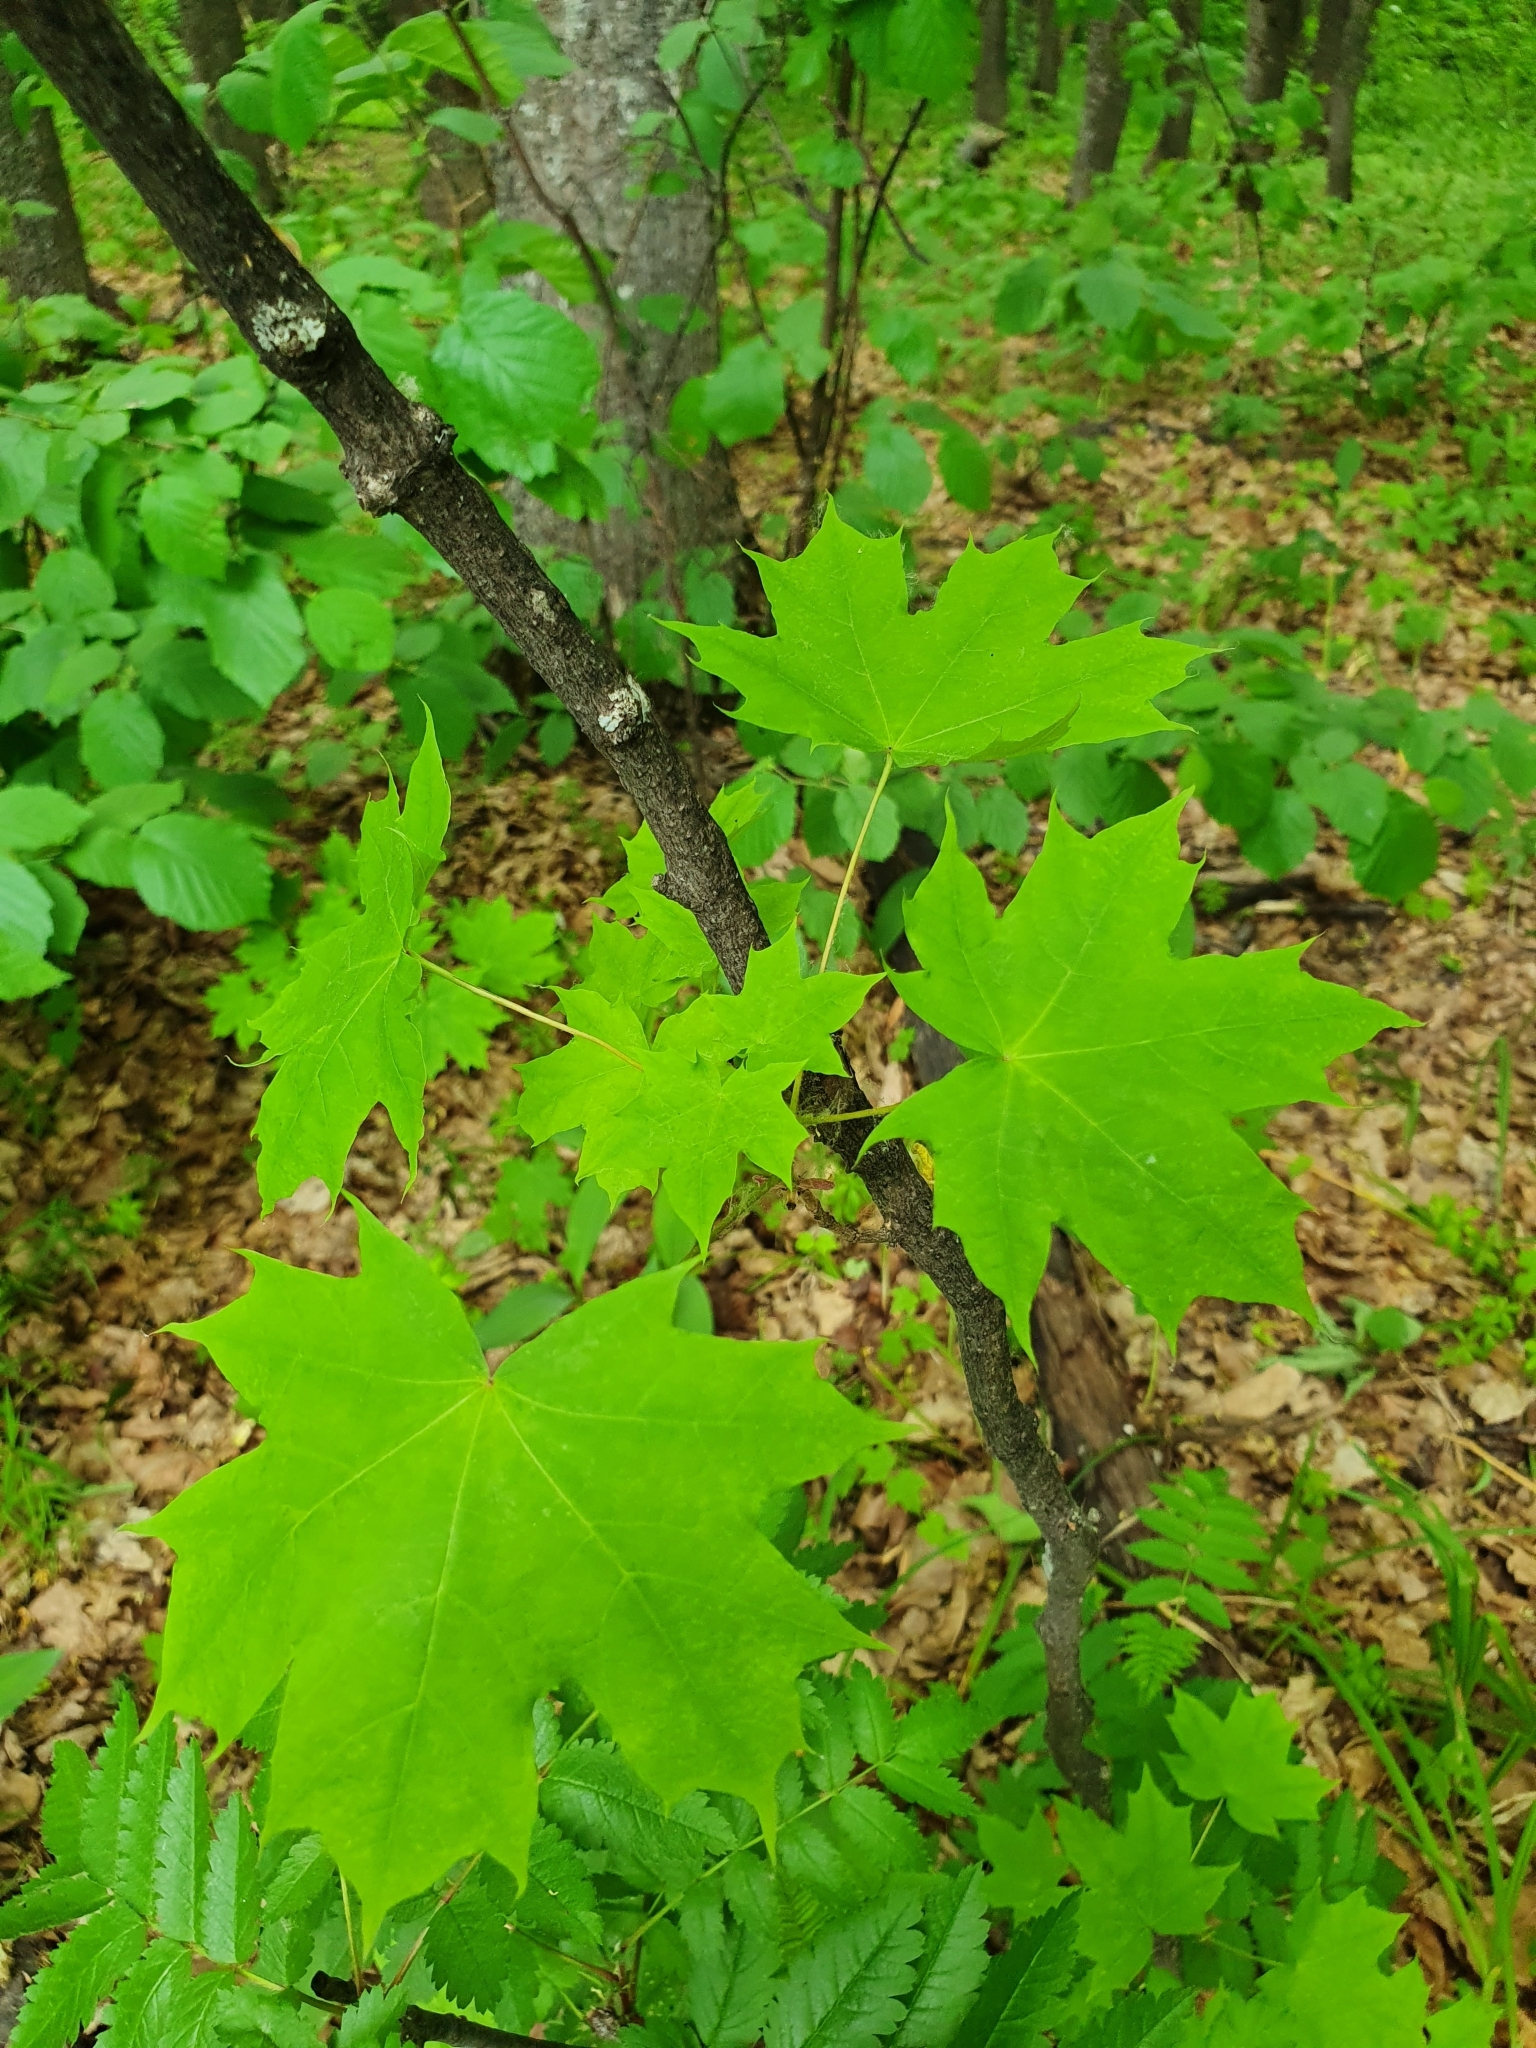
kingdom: Plantae
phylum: Tracheophyta
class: Magnoliopsida
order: Sapindales
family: Sapindaceae
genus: Acer
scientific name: Acer platanoides
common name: Norway maple
